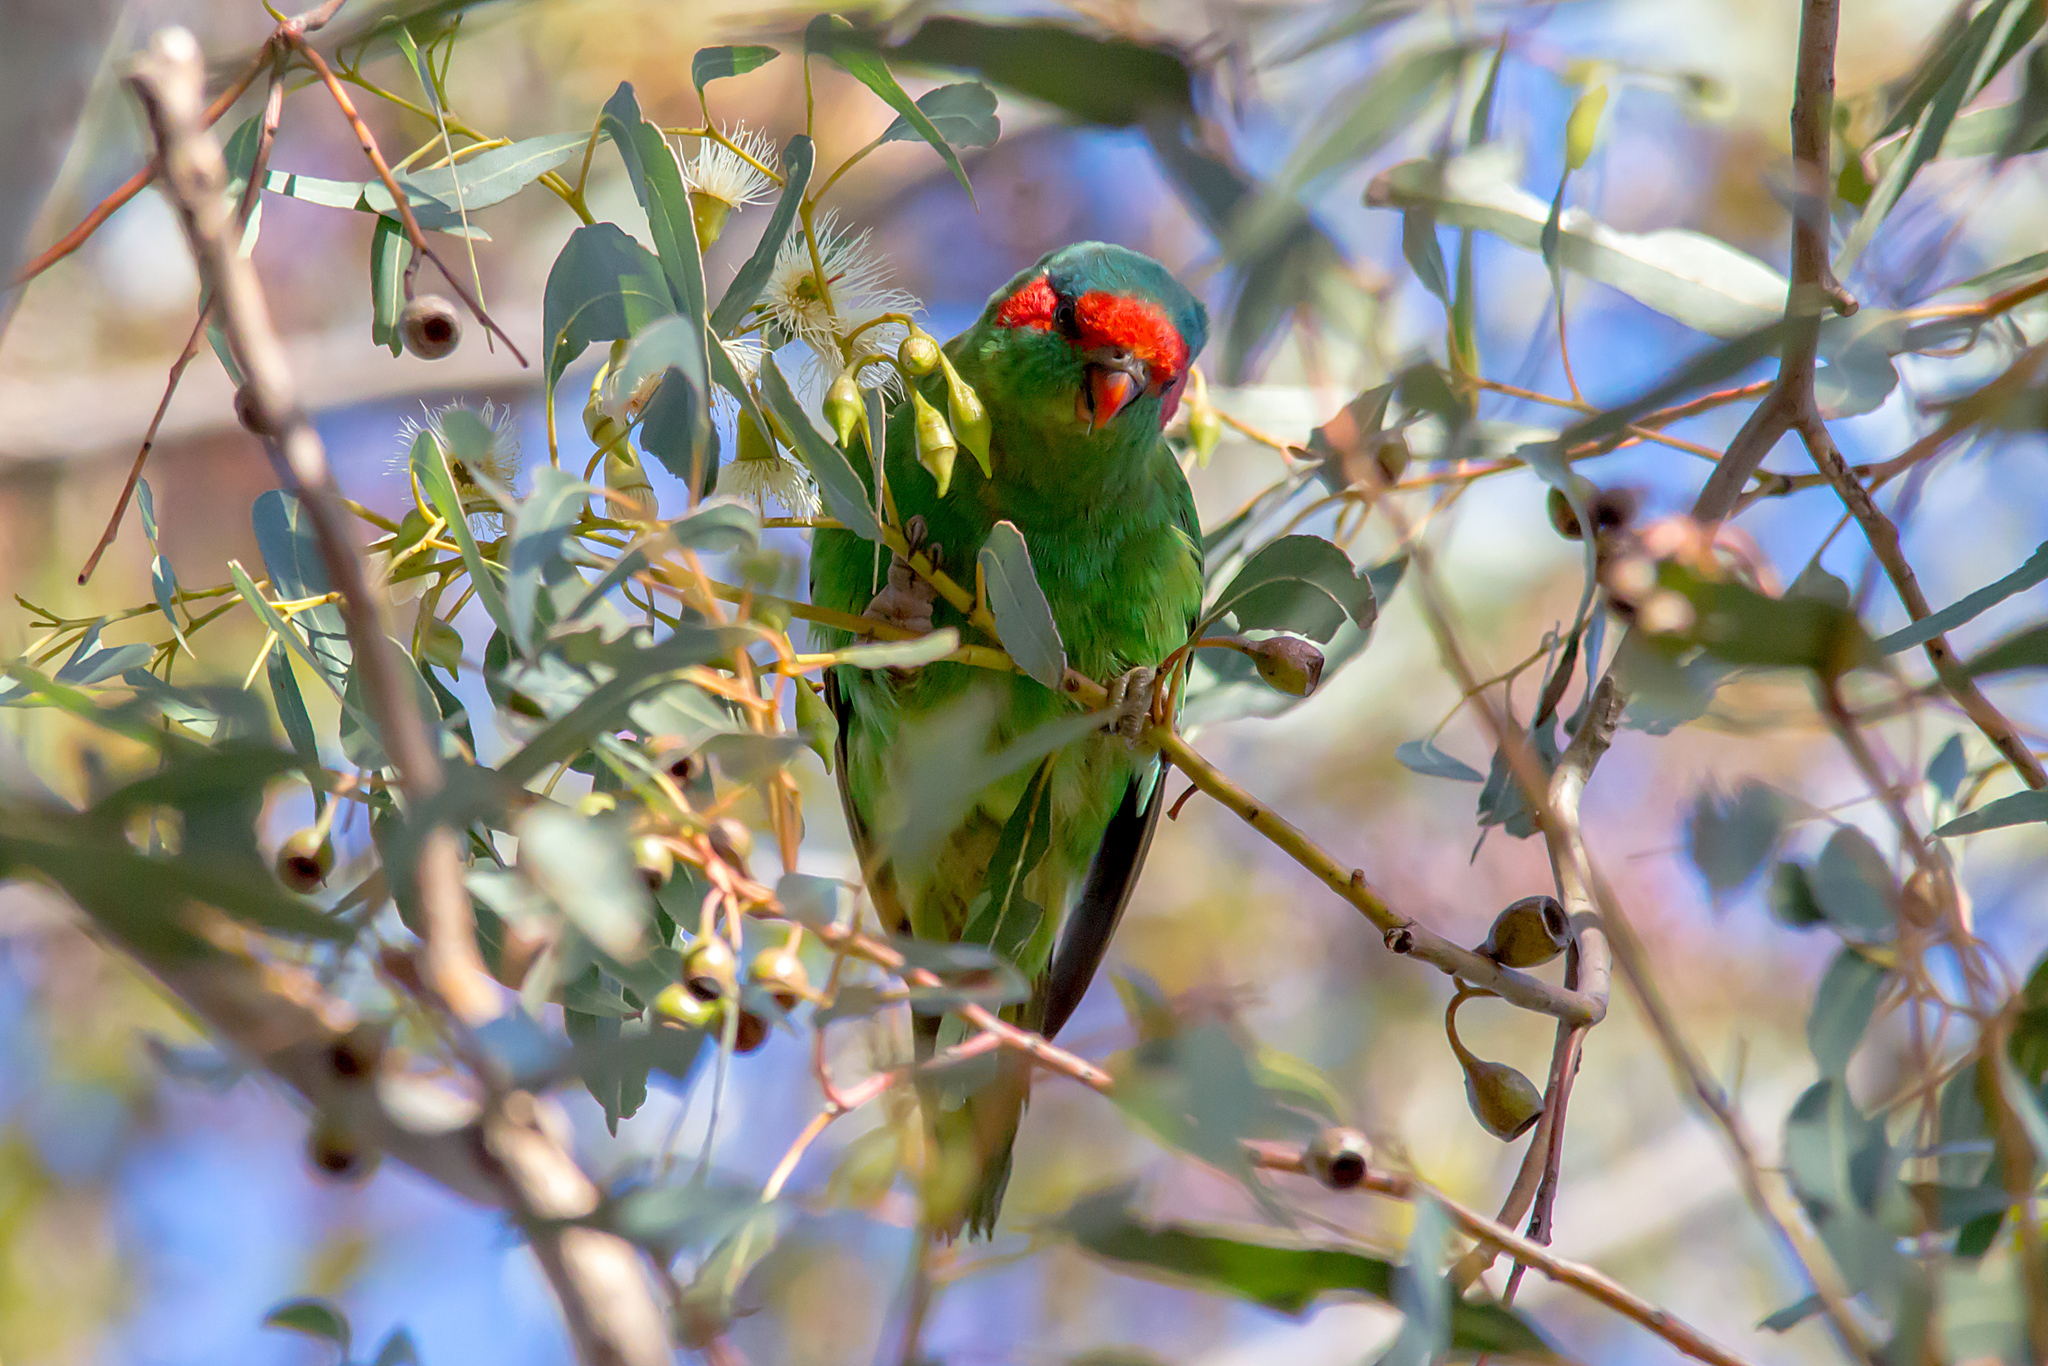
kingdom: Animalia
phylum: Chordata
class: Aves
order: Psittaciformes
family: Psittacidae
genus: Glossopsitta
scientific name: Glossopsitta concinna
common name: Musk lorikeet
